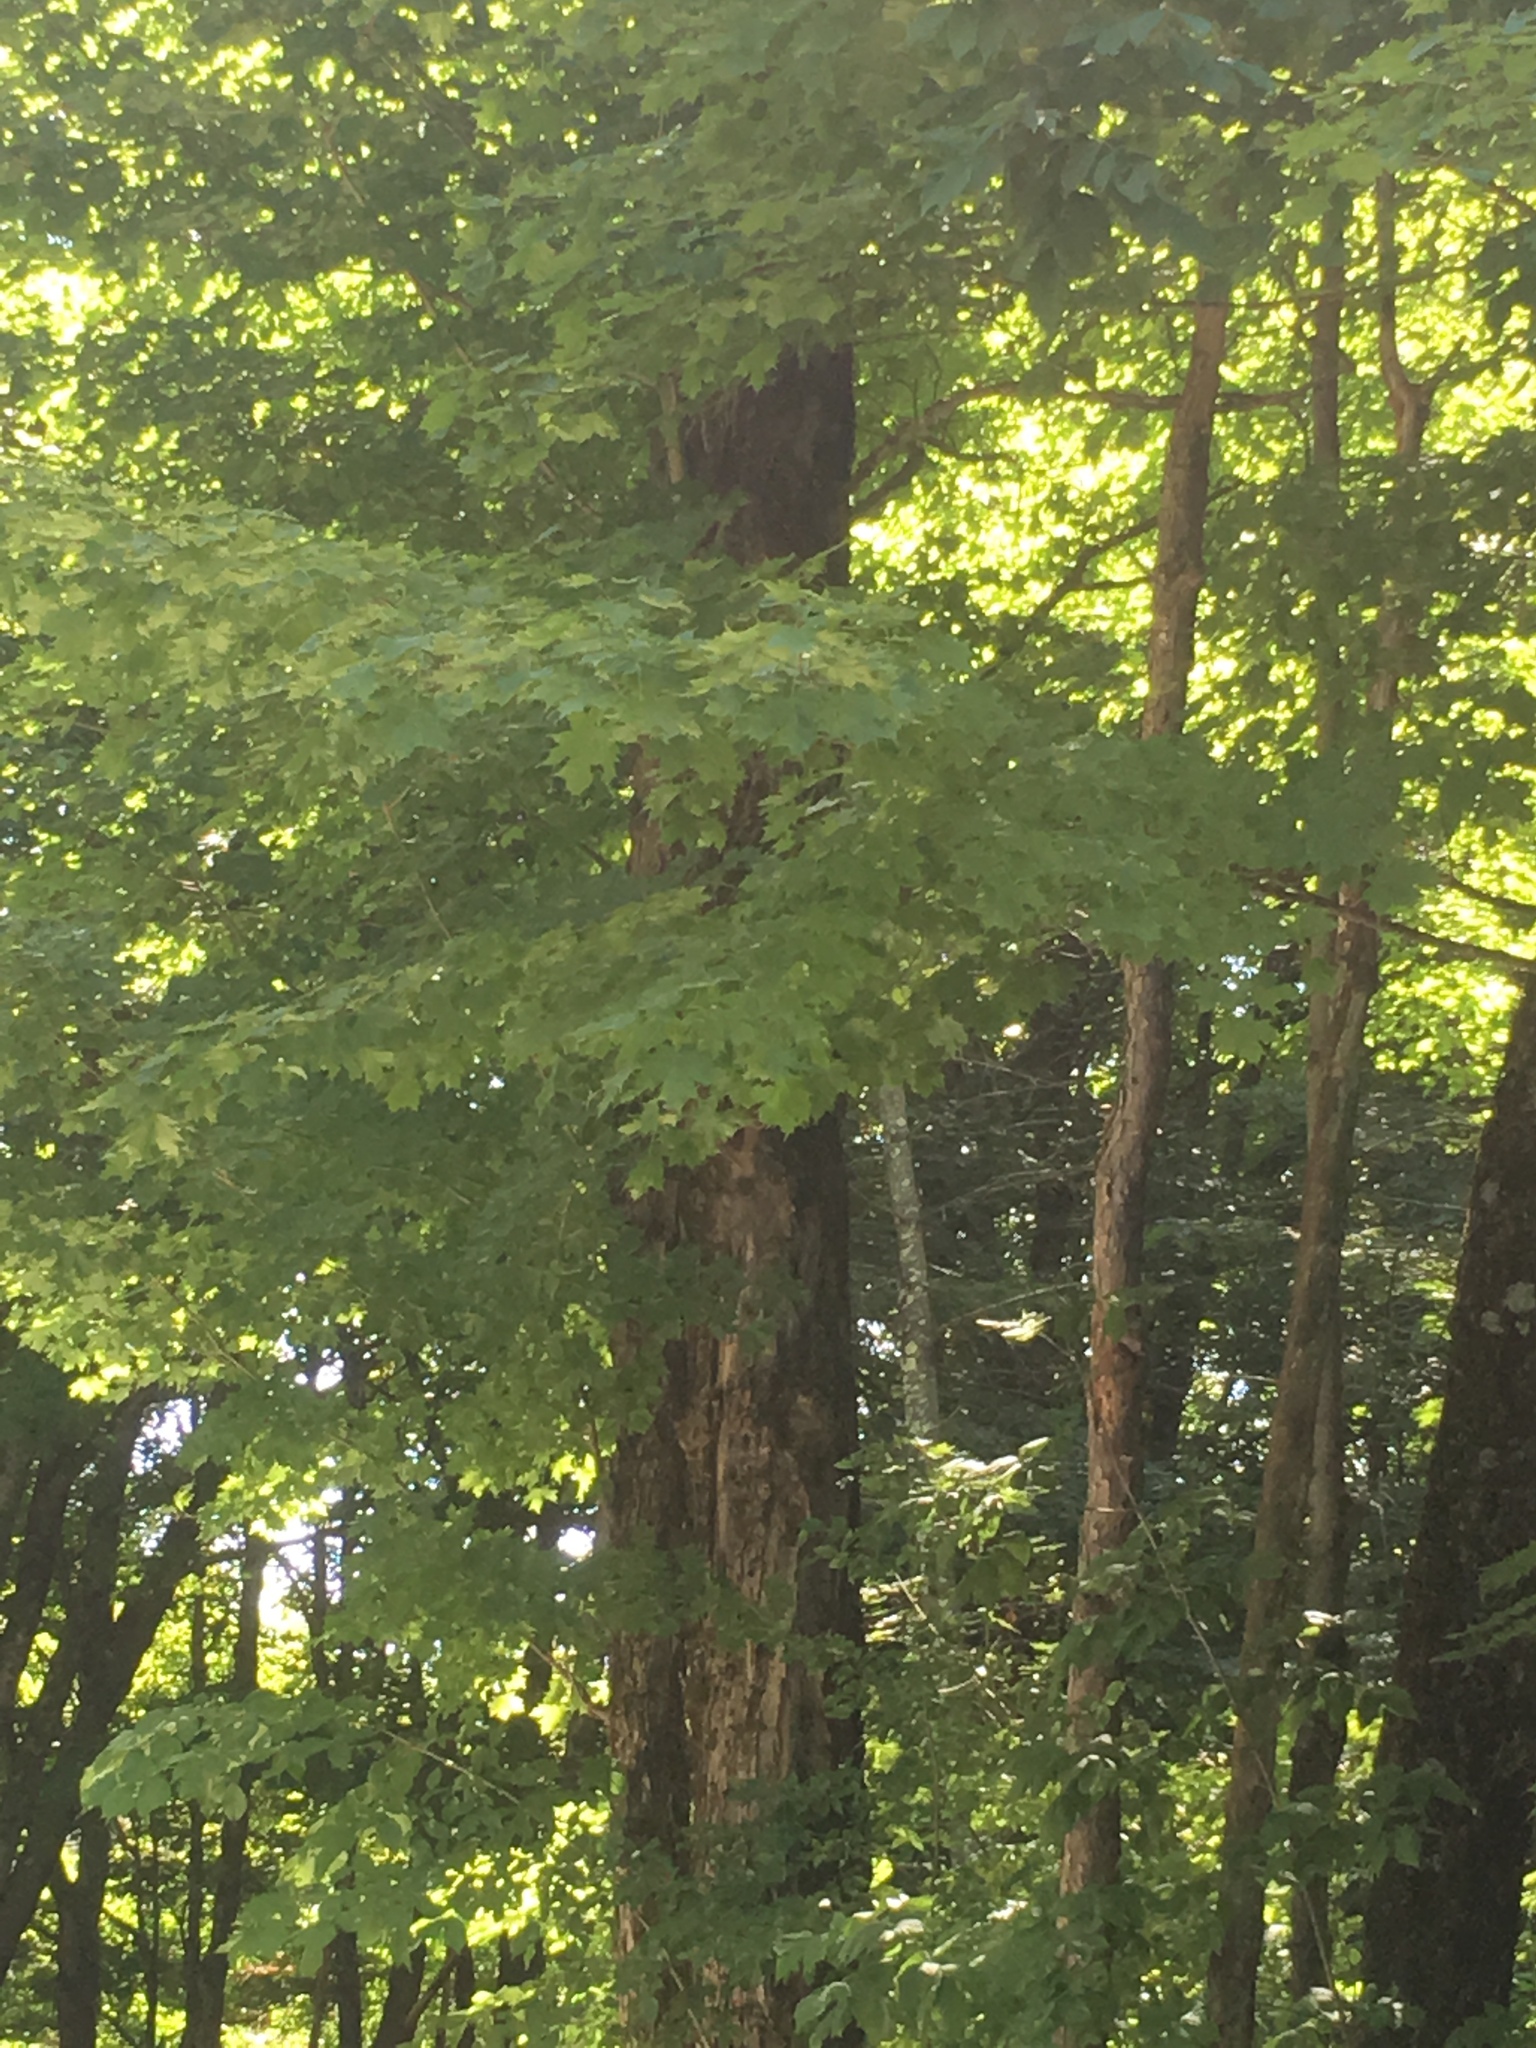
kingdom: Plantae
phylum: Tracheophyta
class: Magnoliopsida
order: Sapindales
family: Sapindaceae
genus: Acer
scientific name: Acer saccharum
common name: Sugar maple
